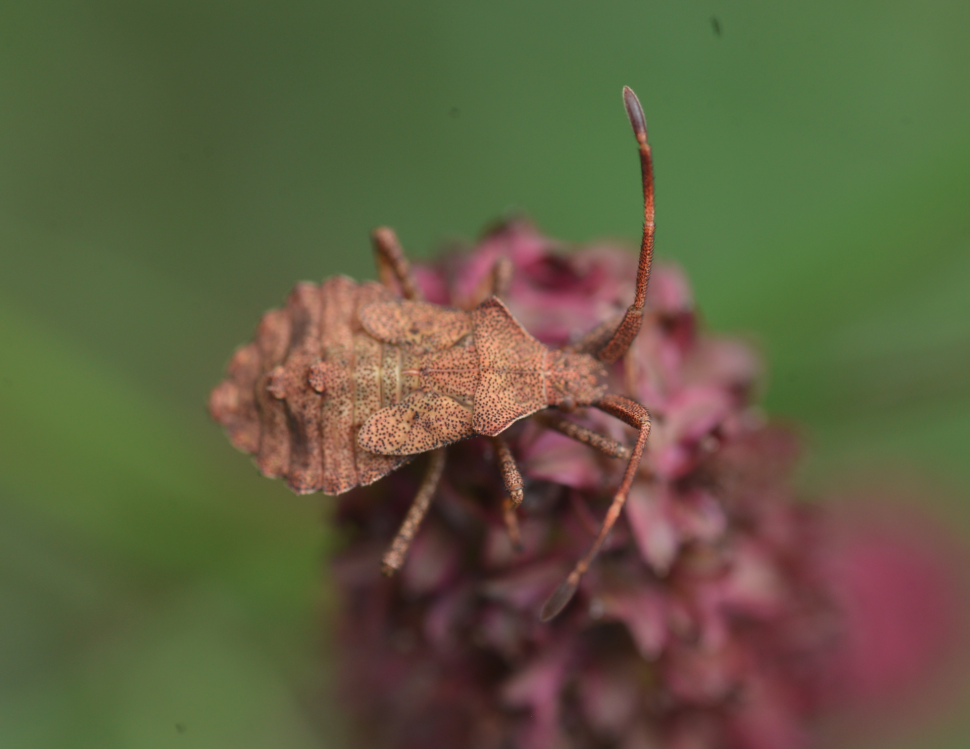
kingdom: Animalia
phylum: Arthropoda
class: Insecta
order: Hemiptera
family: Coreidae
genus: Coreus
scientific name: Coreus marginatus
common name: Dock bug
